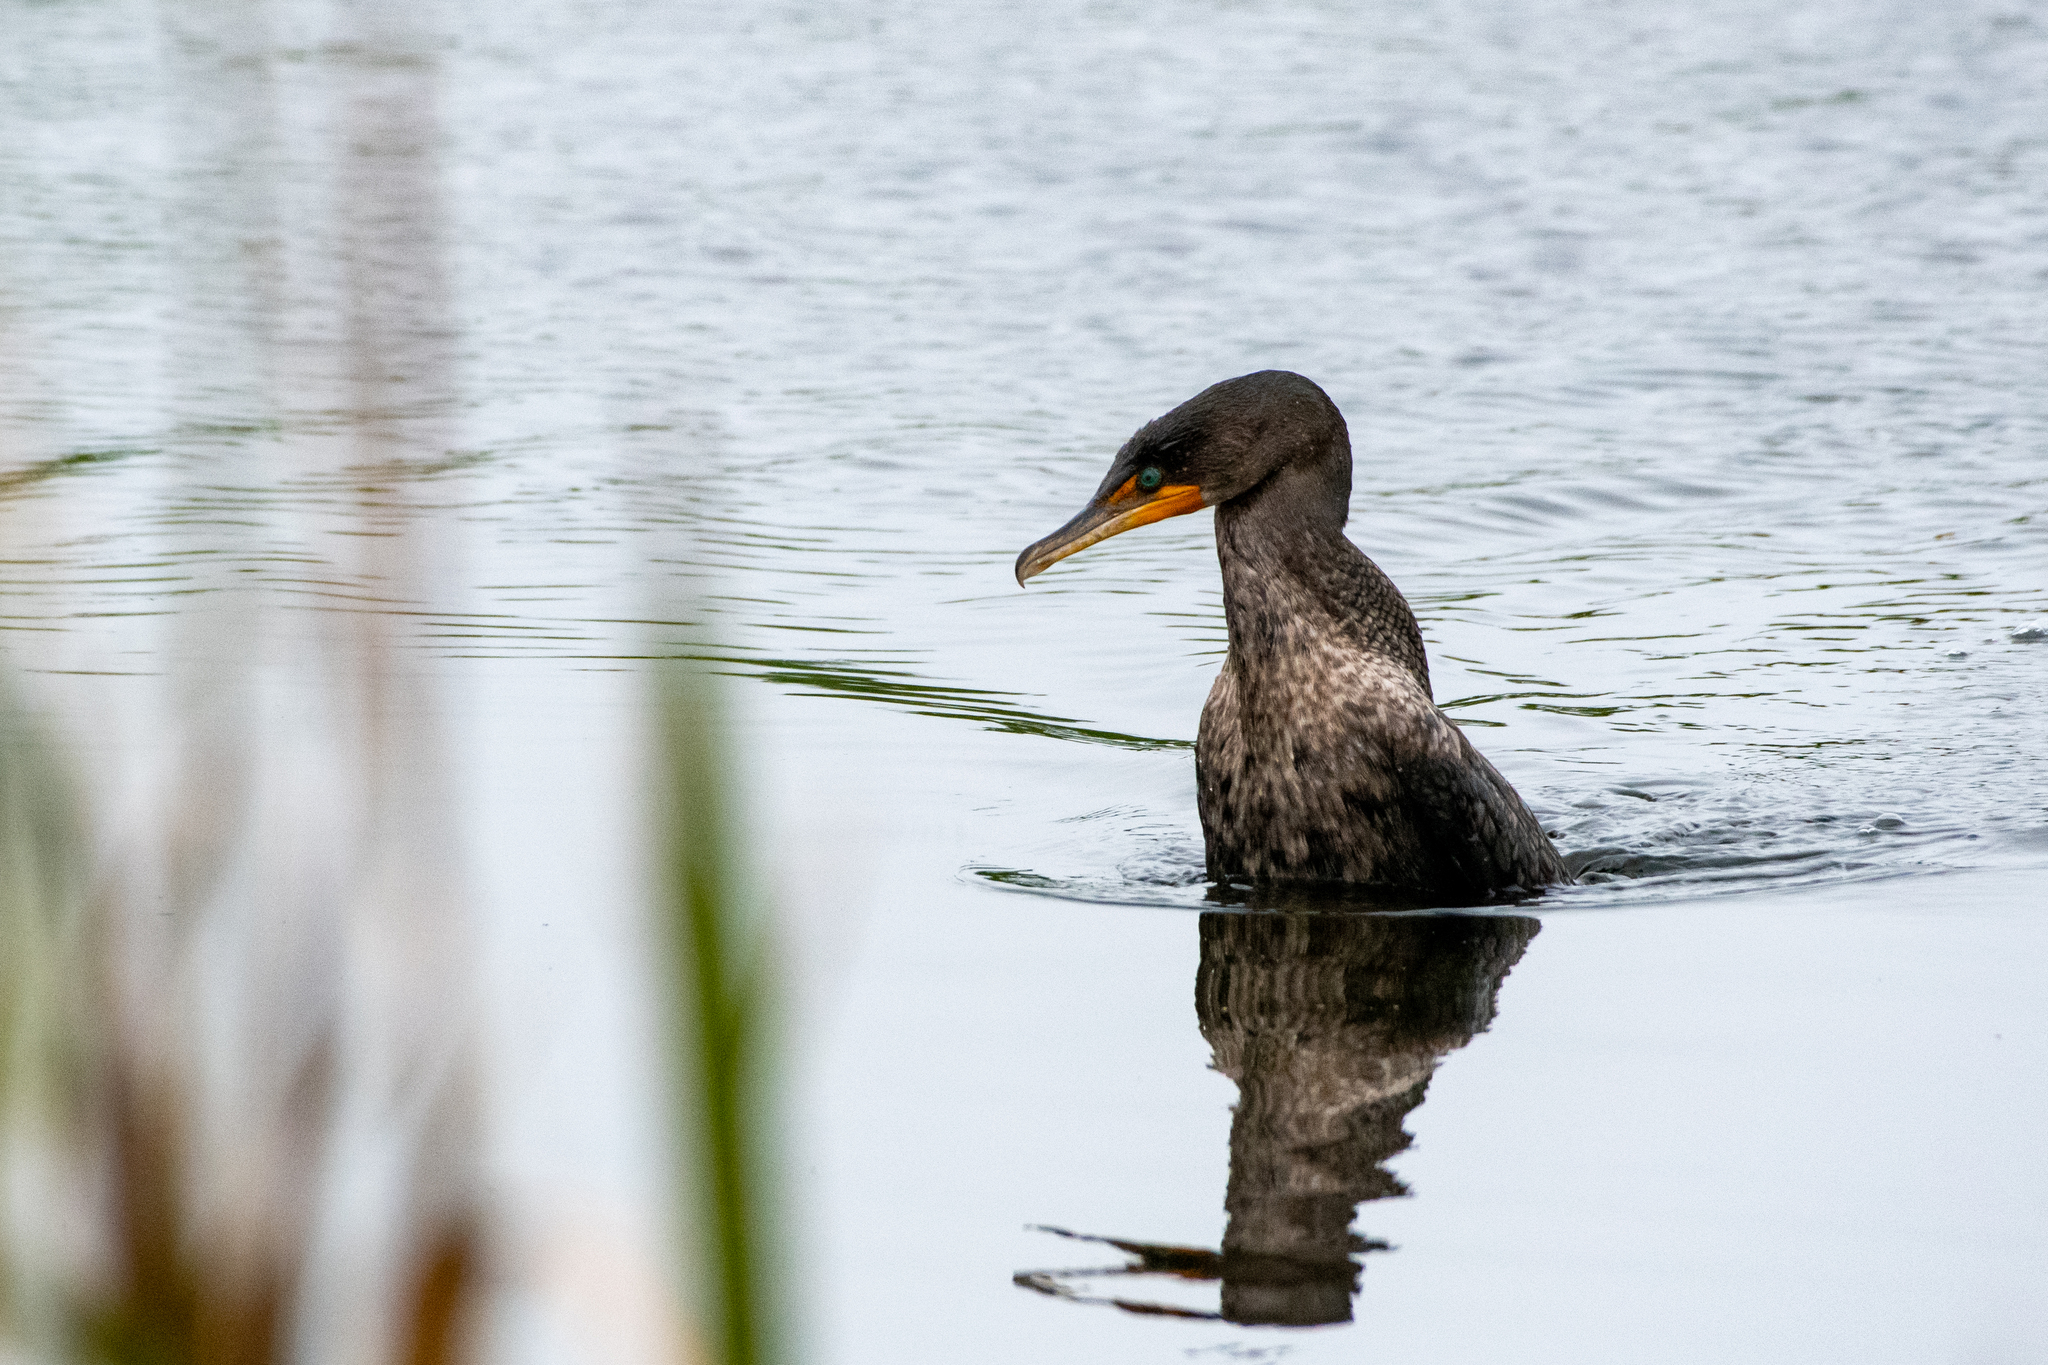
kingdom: Animalia
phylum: Chordata
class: Aves
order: Suliformes
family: Phalacrocoracidae
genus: Phalacrocorax
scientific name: Phalacrocorax auritus
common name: Double-crested cormorant
